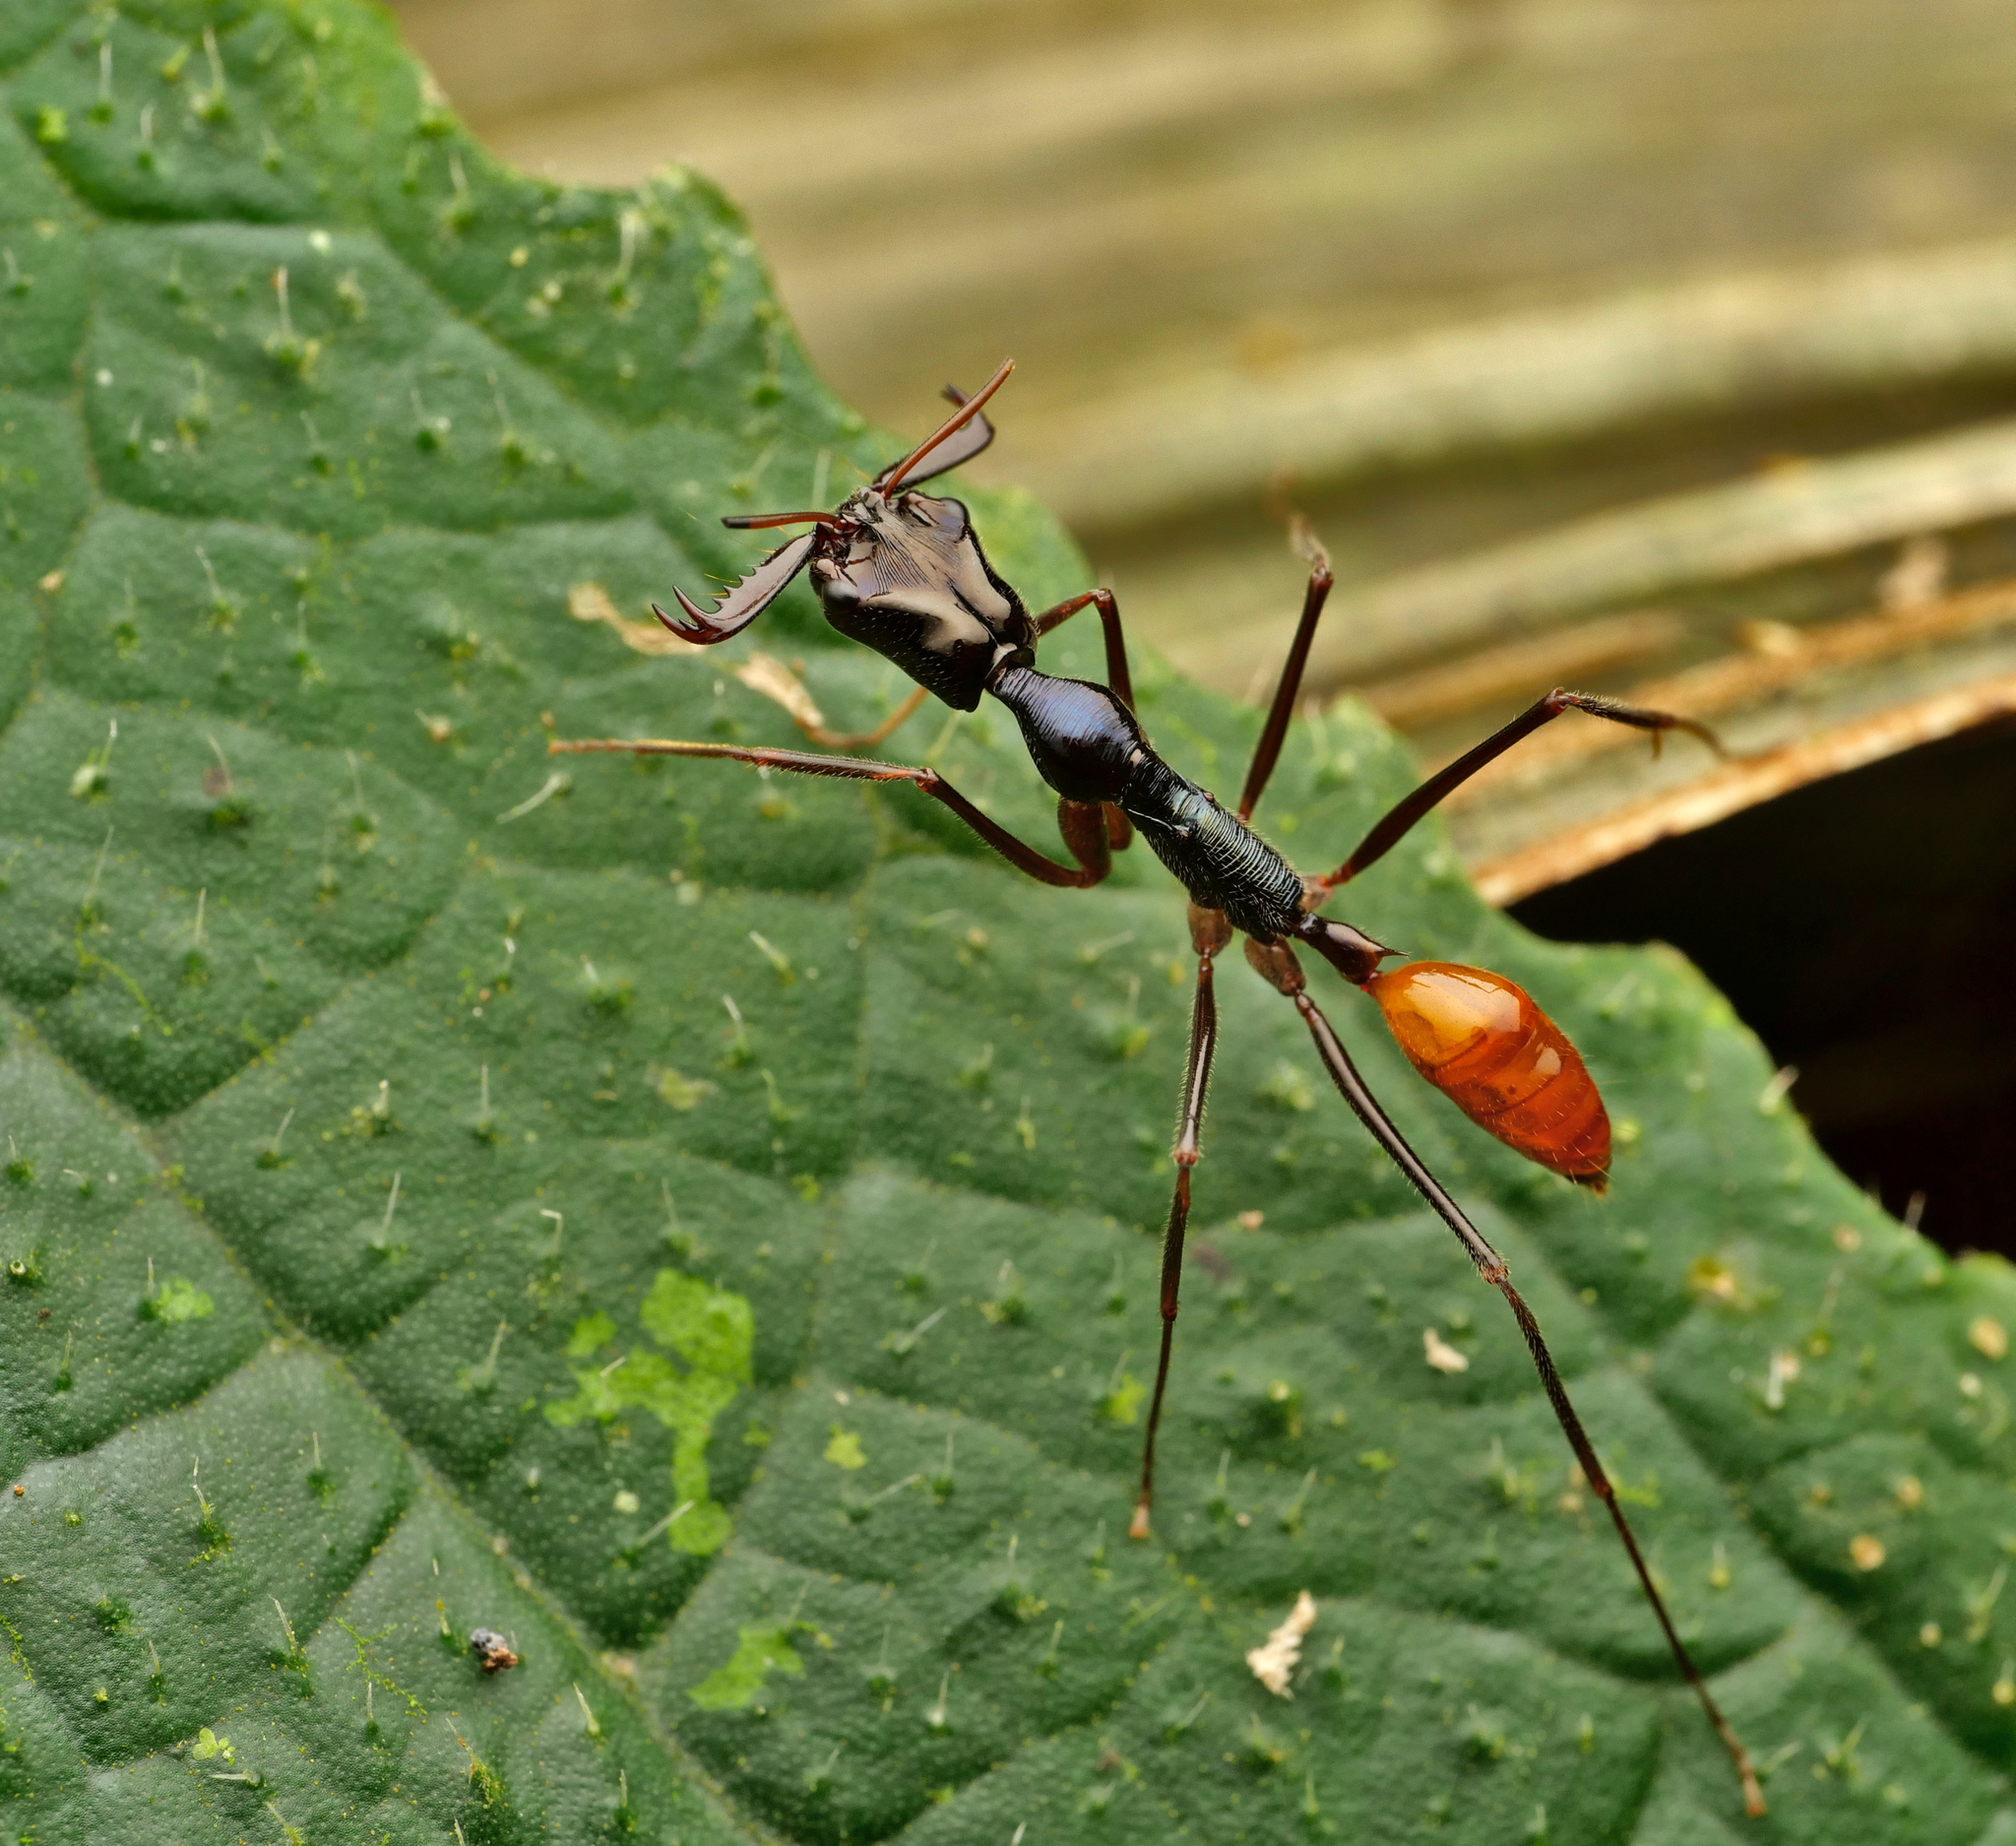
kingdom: Animalia
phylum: Arthropoda
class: Insecta
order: Hymenoptera
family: Formicidae
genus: Odontomachus
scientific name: Odontomachus tyrannicus
